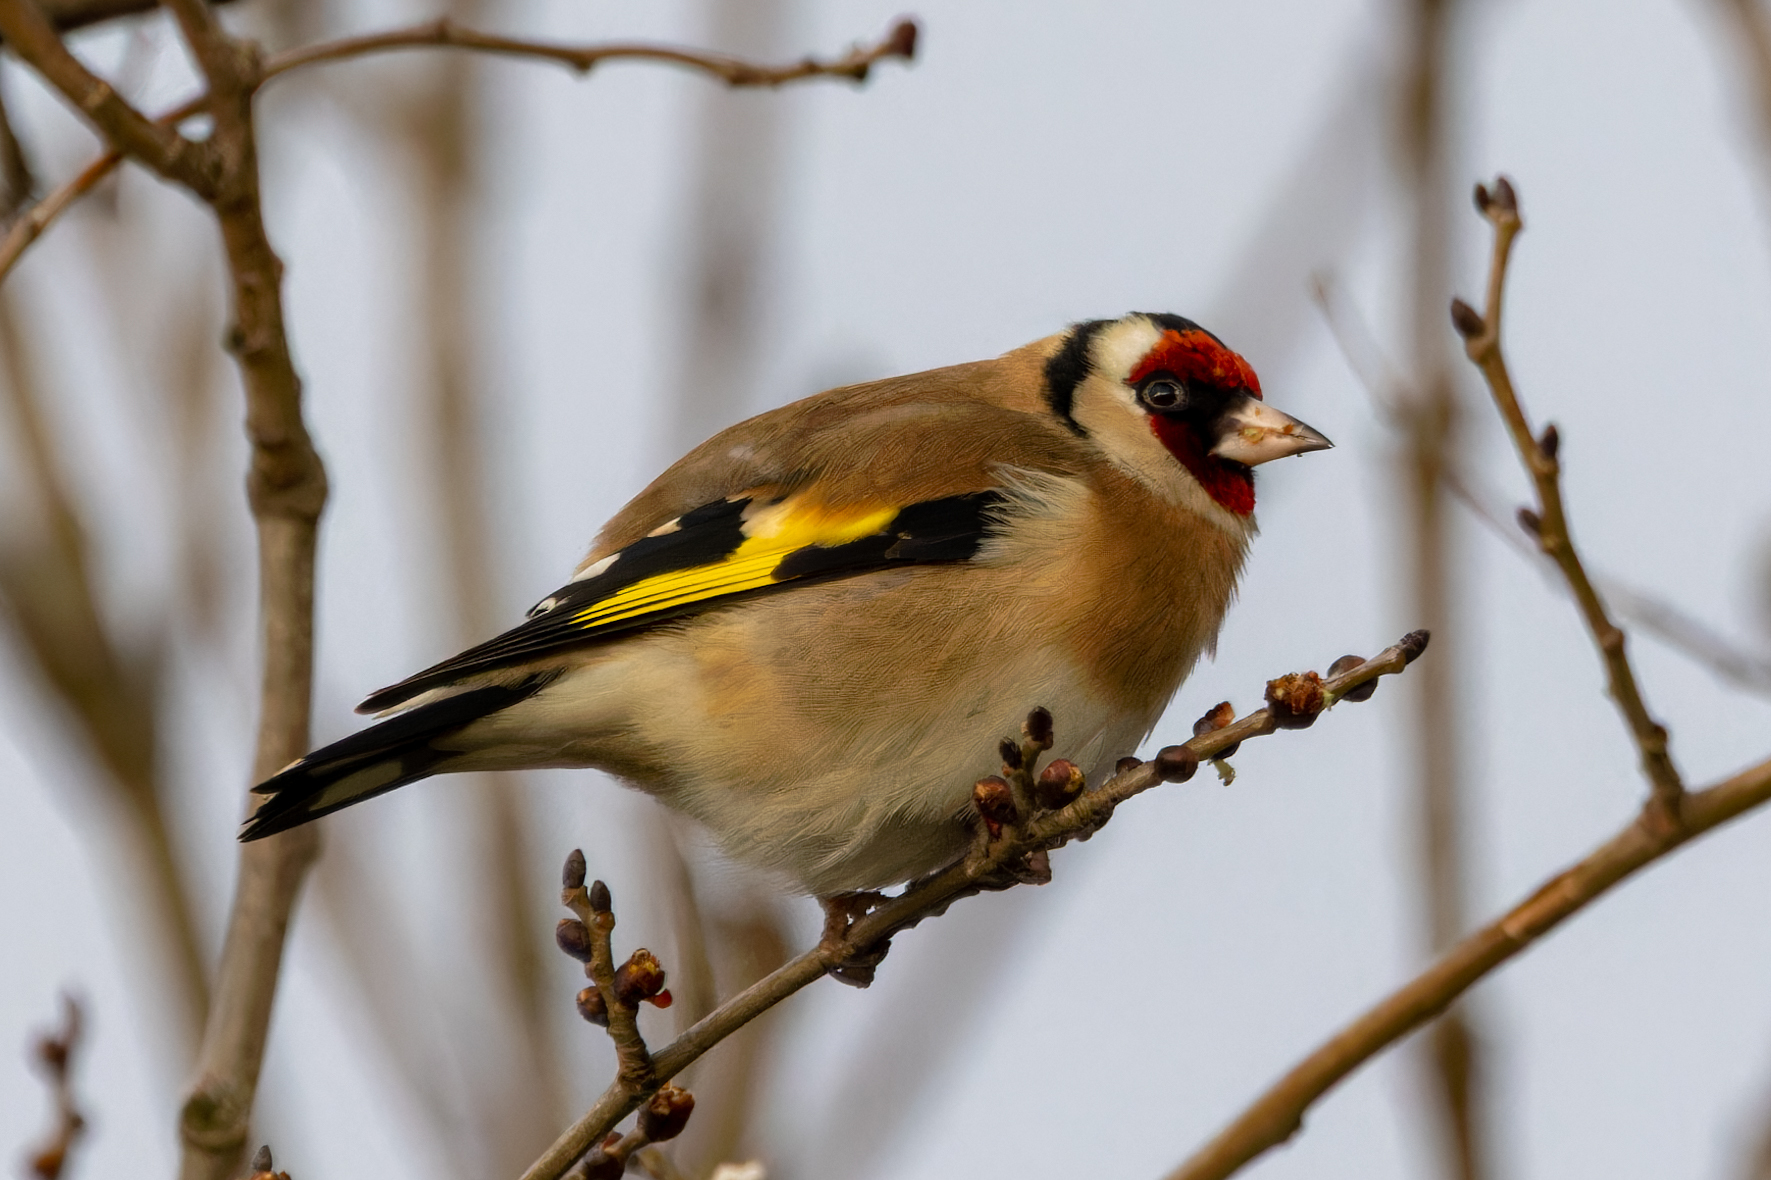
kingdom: Animalia
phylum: Chordata
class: Aves
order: Passeriformes
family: Fringillidae
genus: Carduelis
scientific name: Carduelis carduelis
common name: European goldfinch
